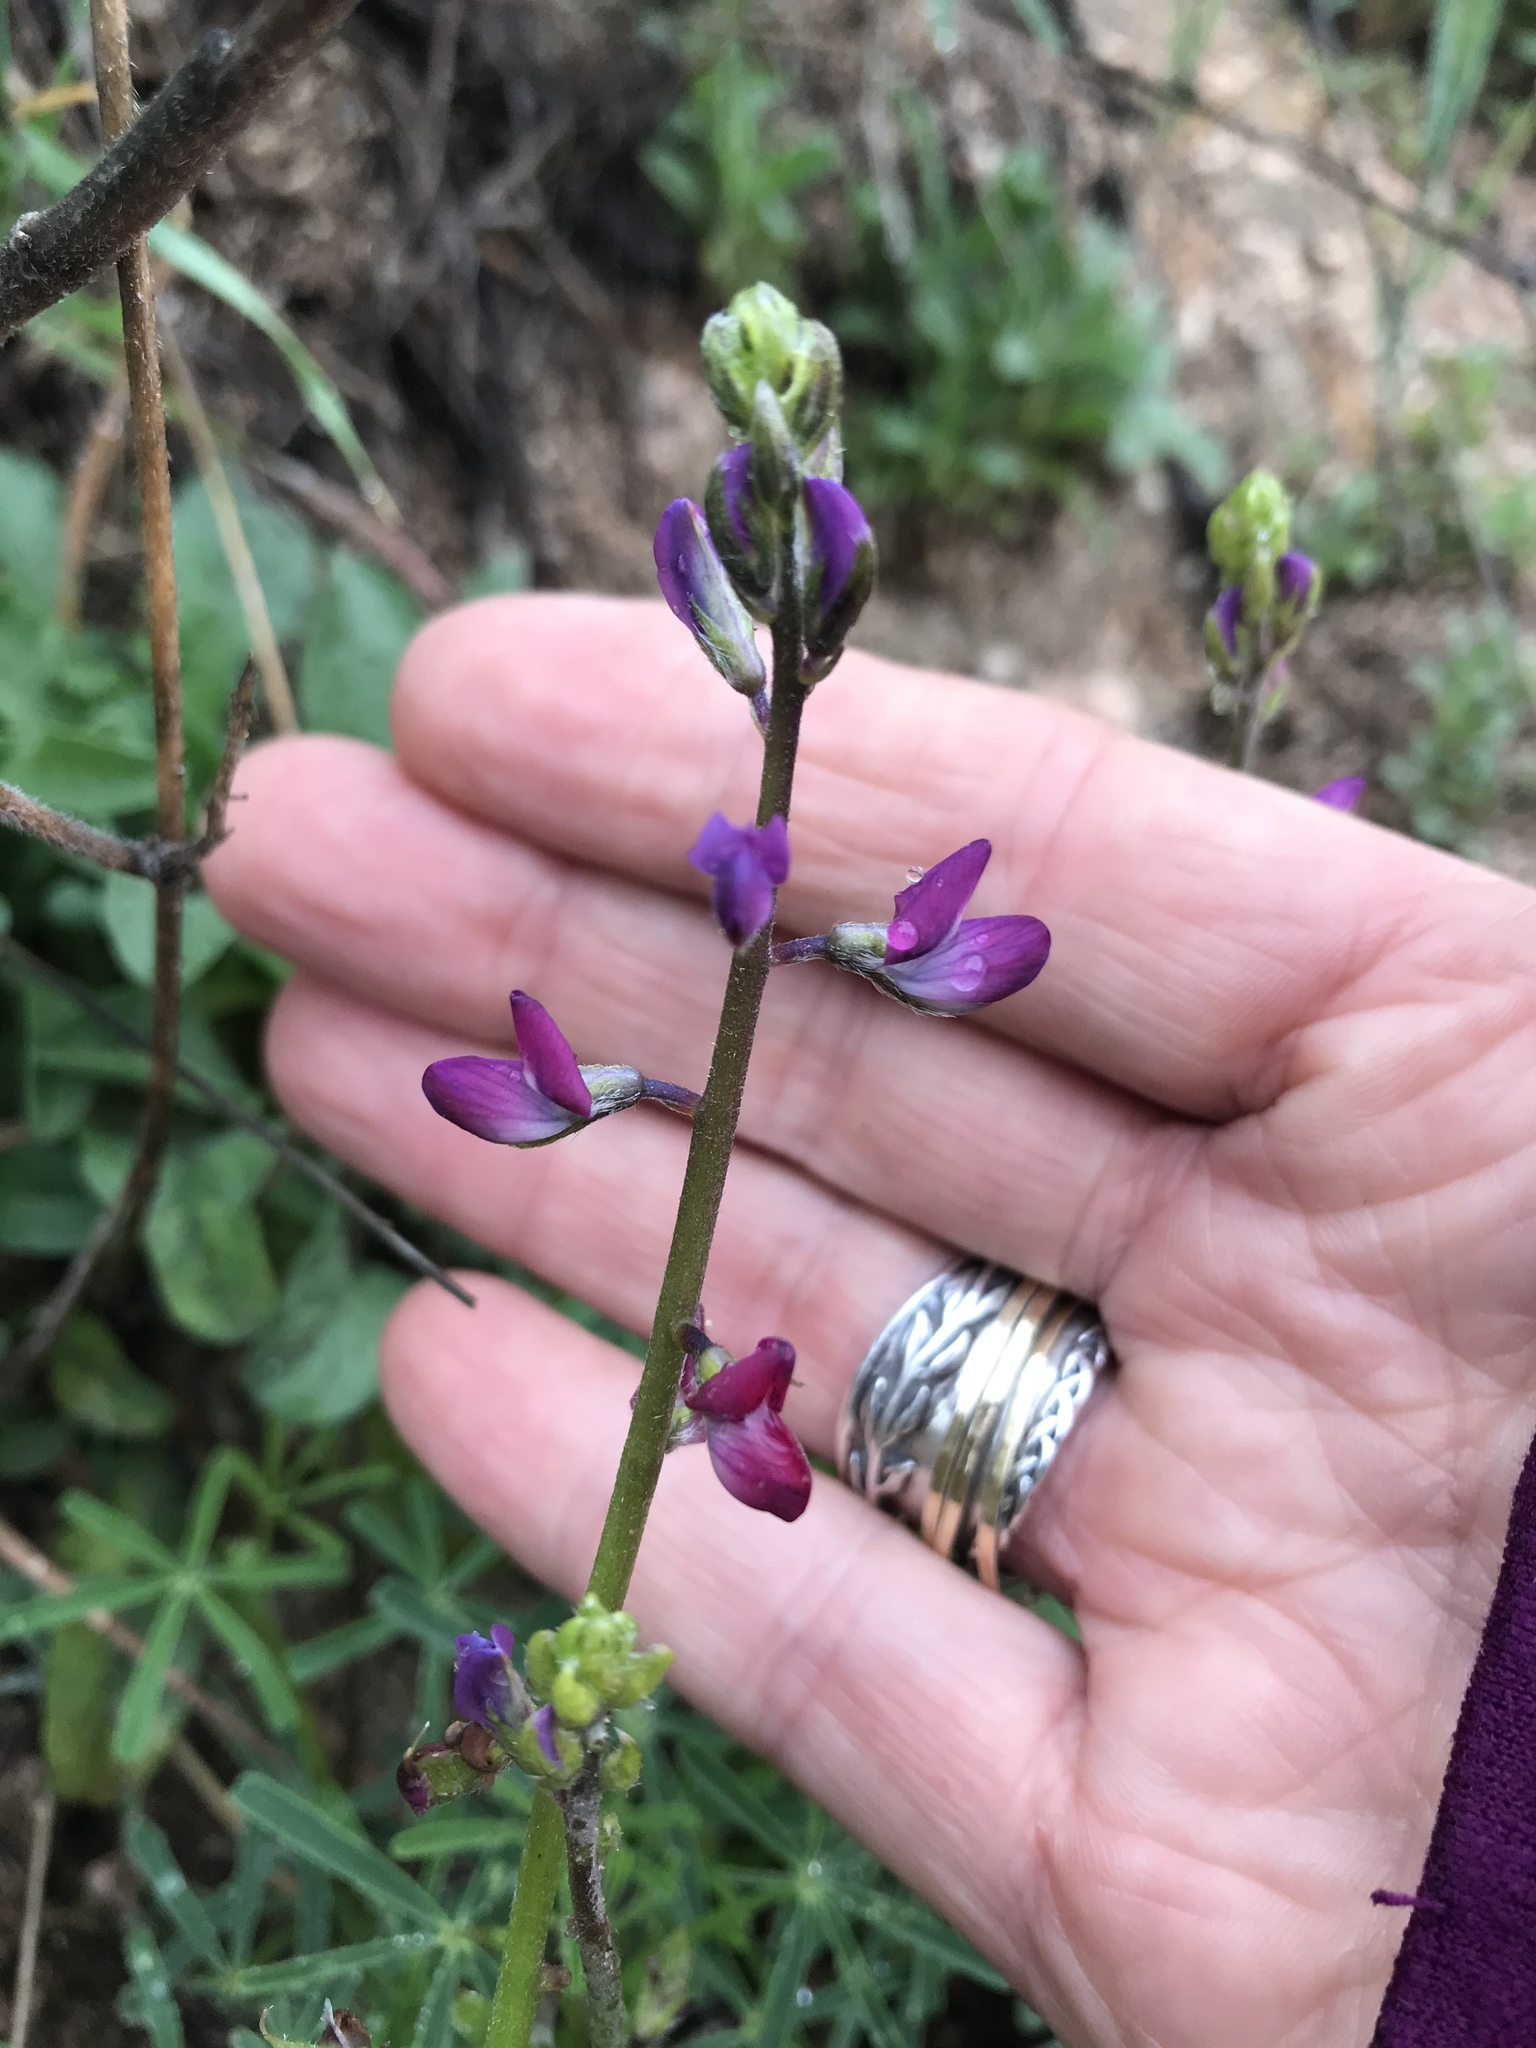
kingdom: Plantae
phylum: Tracheophyta
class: Magnoliopsida
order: Fabales
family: Fabaceae
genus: Lupinus
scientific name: Lupinus truncatus
